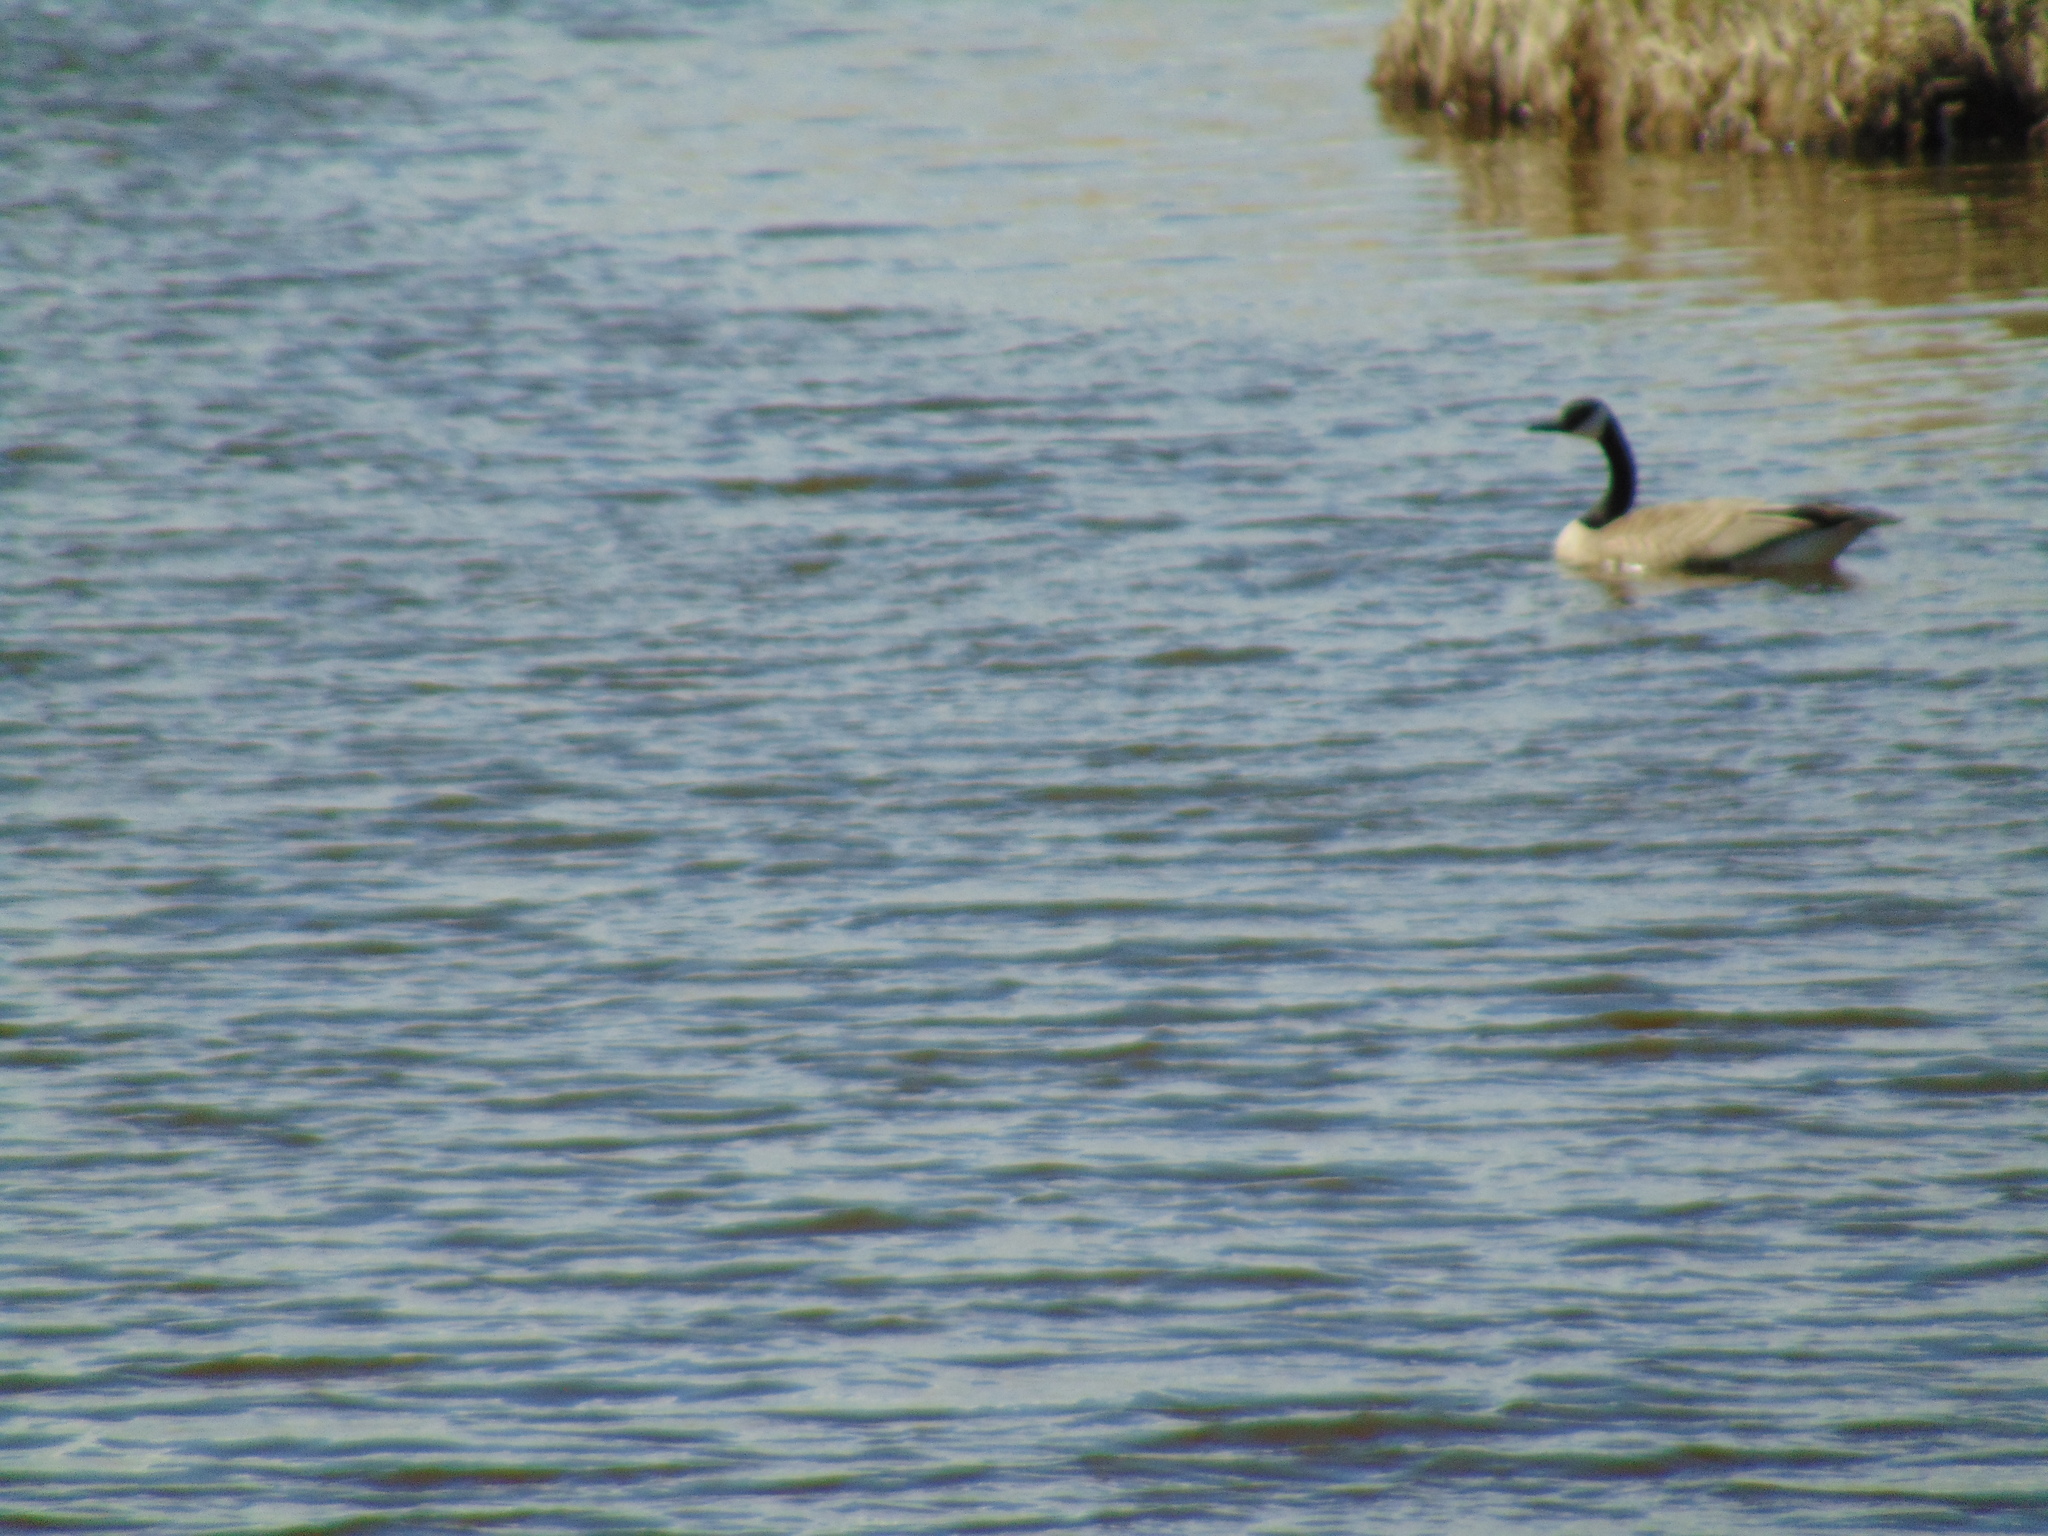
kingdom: Animalia
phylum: Chordata
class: Aves
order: Anseriformes
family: Anatidae
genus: Branta
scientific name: Branta canadensis
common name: Canada goose
